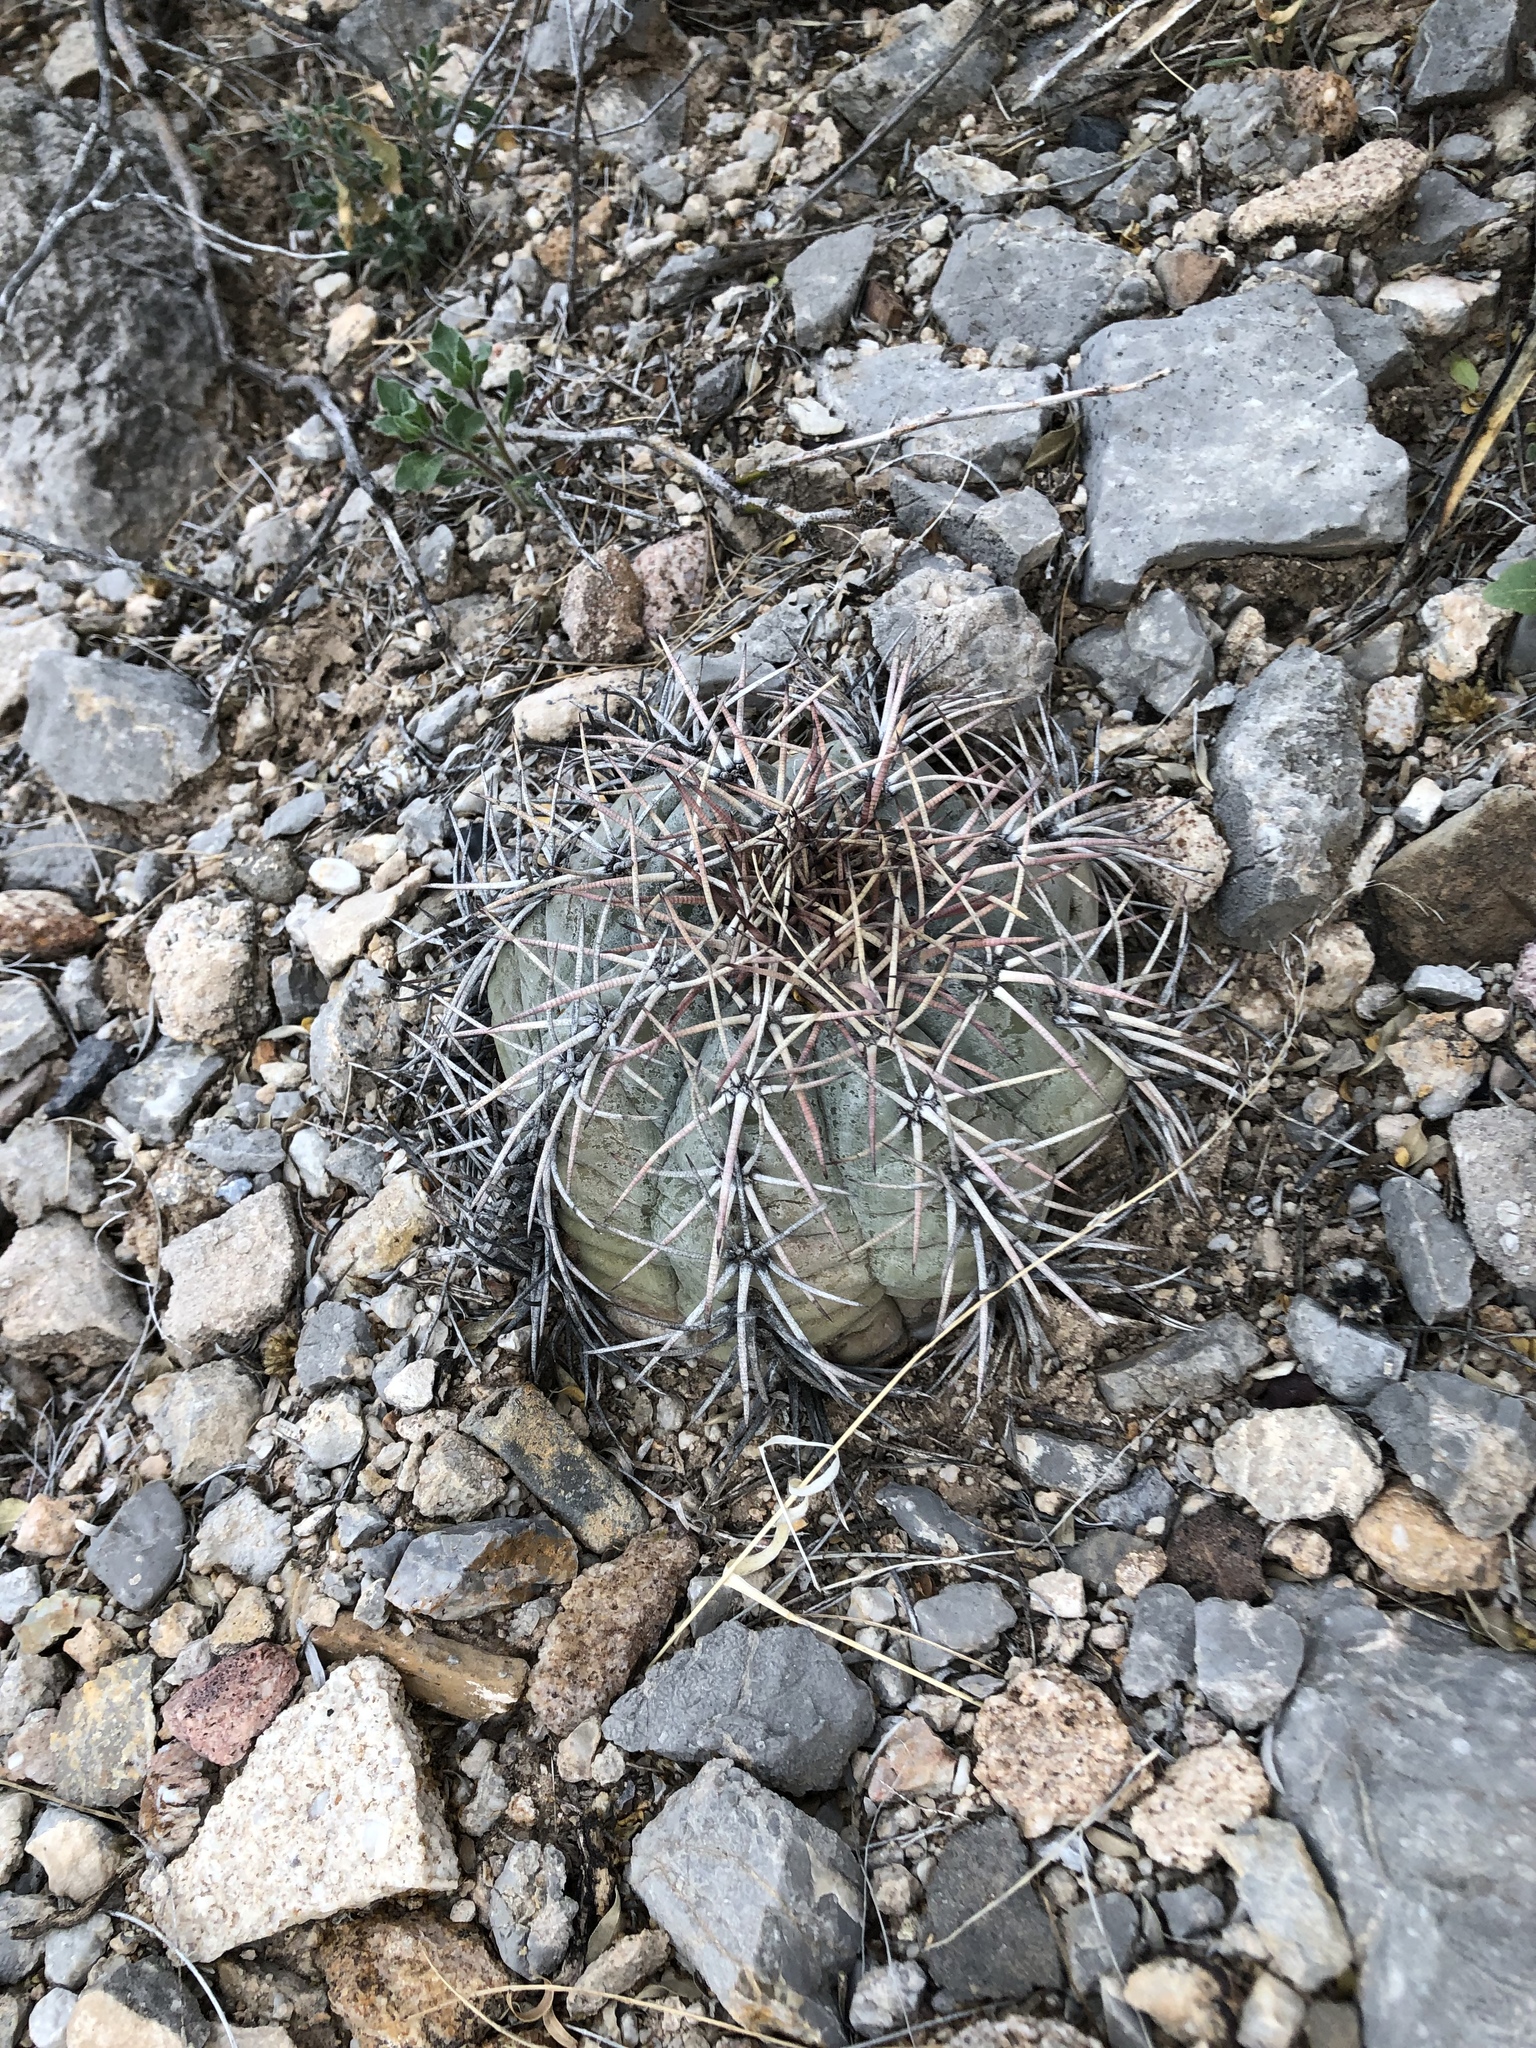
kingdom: Plantae
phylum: Tracheophyta
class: Magnoliopsida
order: Caryophyllales
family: Cactaceae
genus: Echinocactus
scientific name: Echinocactus horizonthalonius
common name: Devilshead
